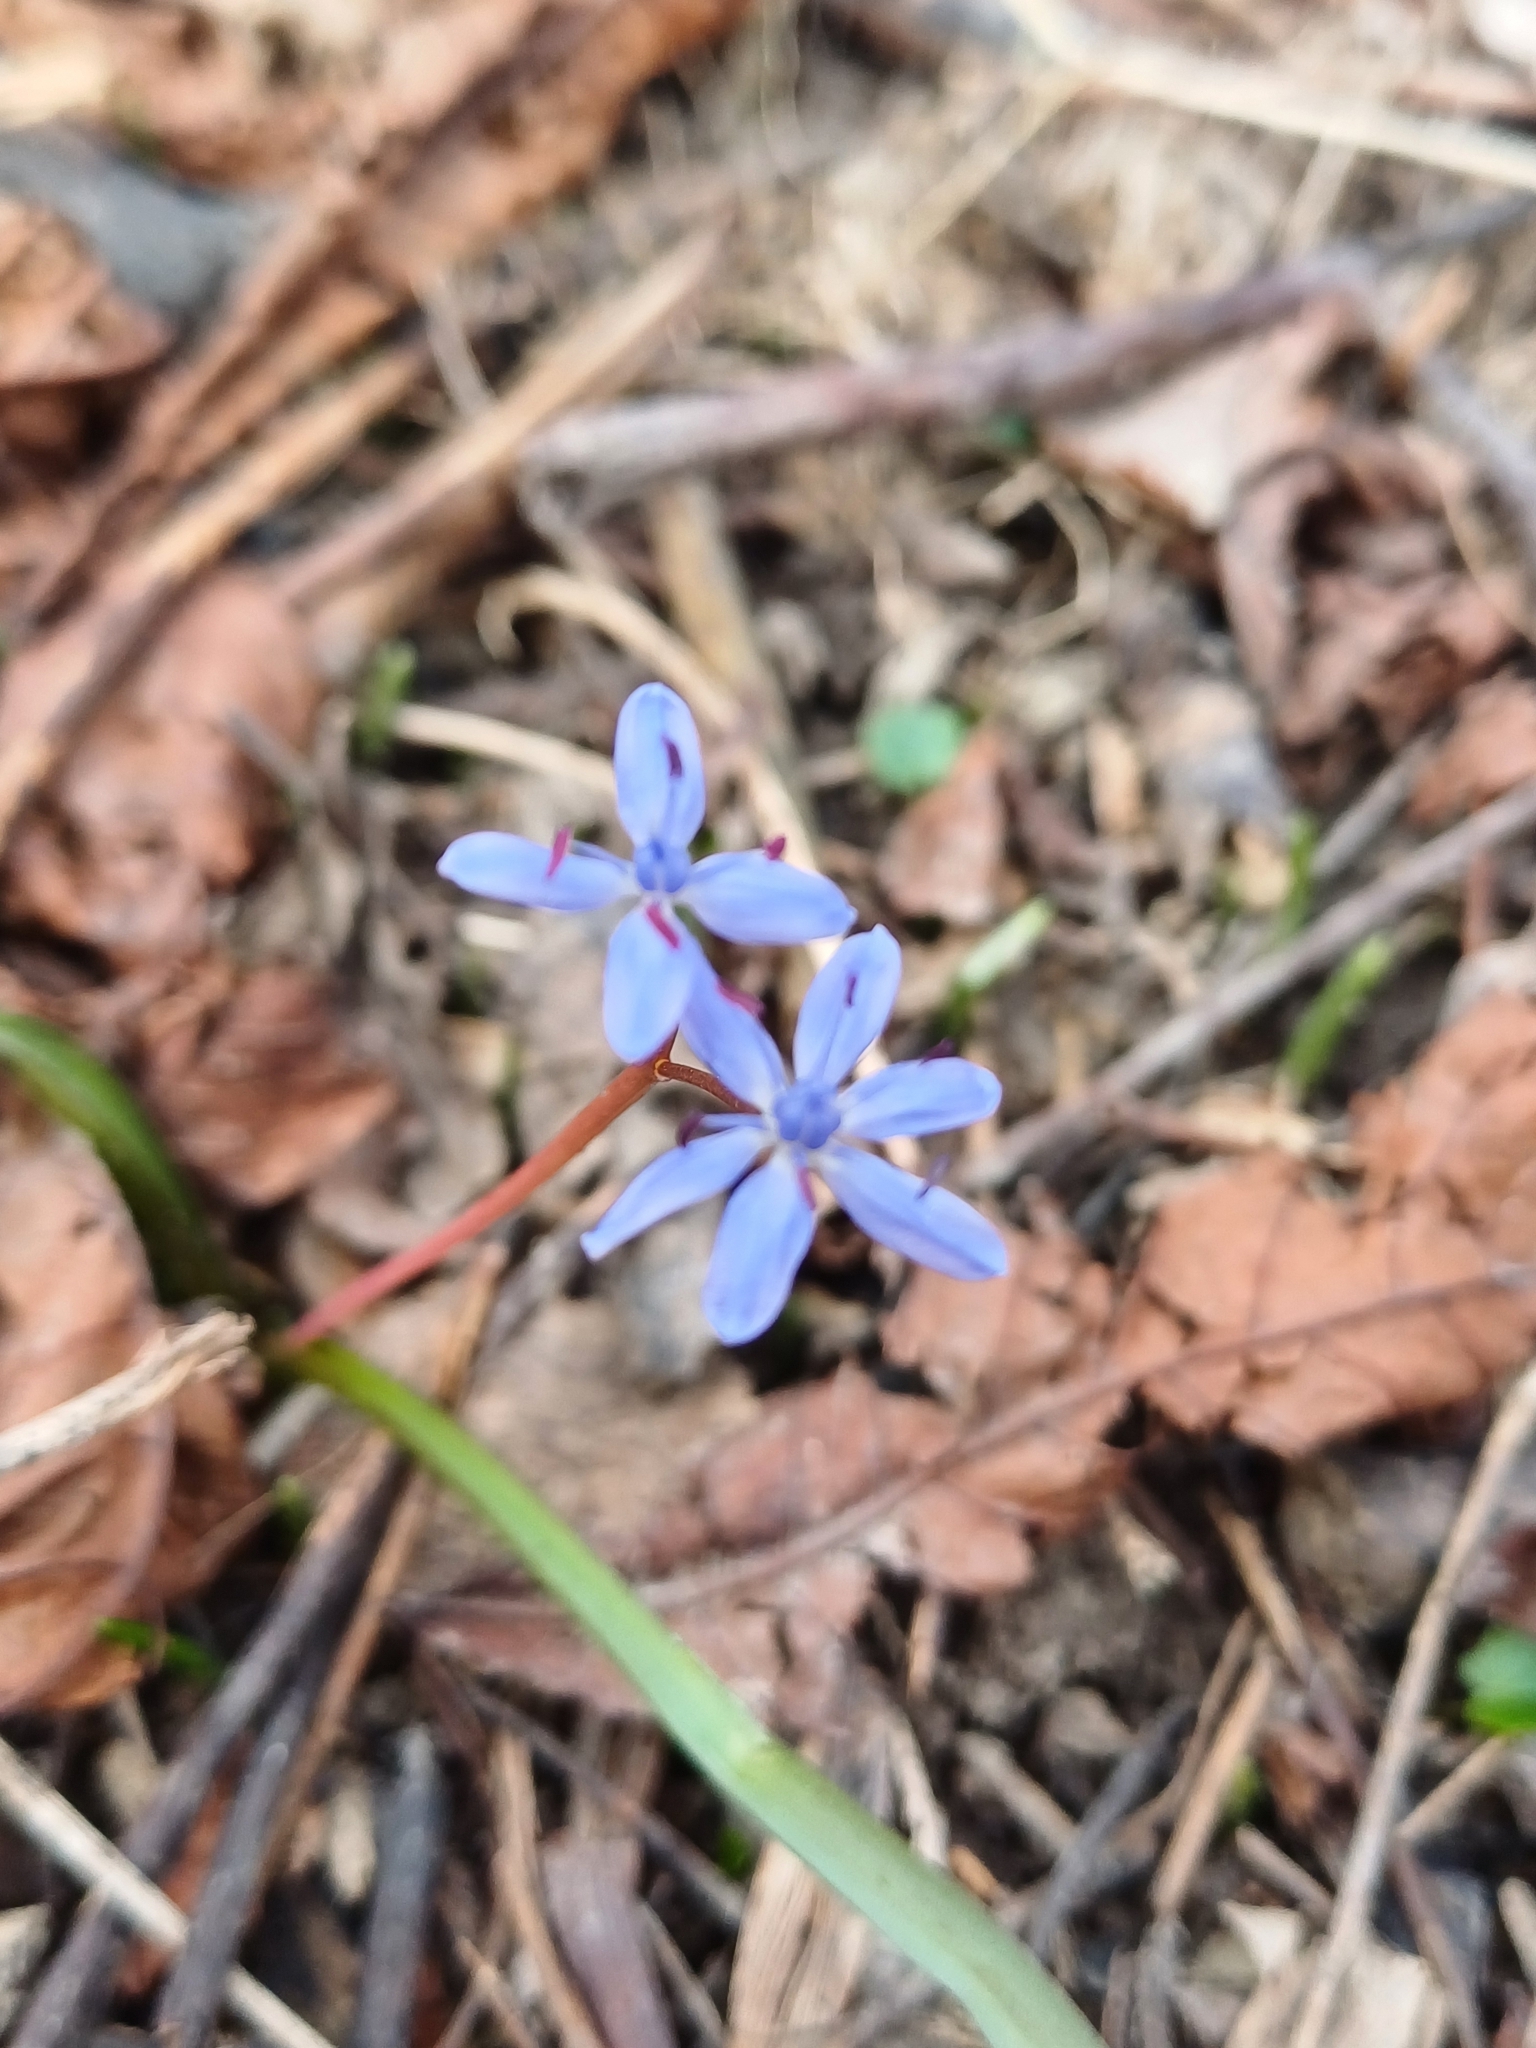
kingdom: Plantae
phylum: Tracheophyta
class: Liliopsida
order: Asparagales
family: Asparagaceae
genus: Scilla
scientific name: Scilla vindobonensis
